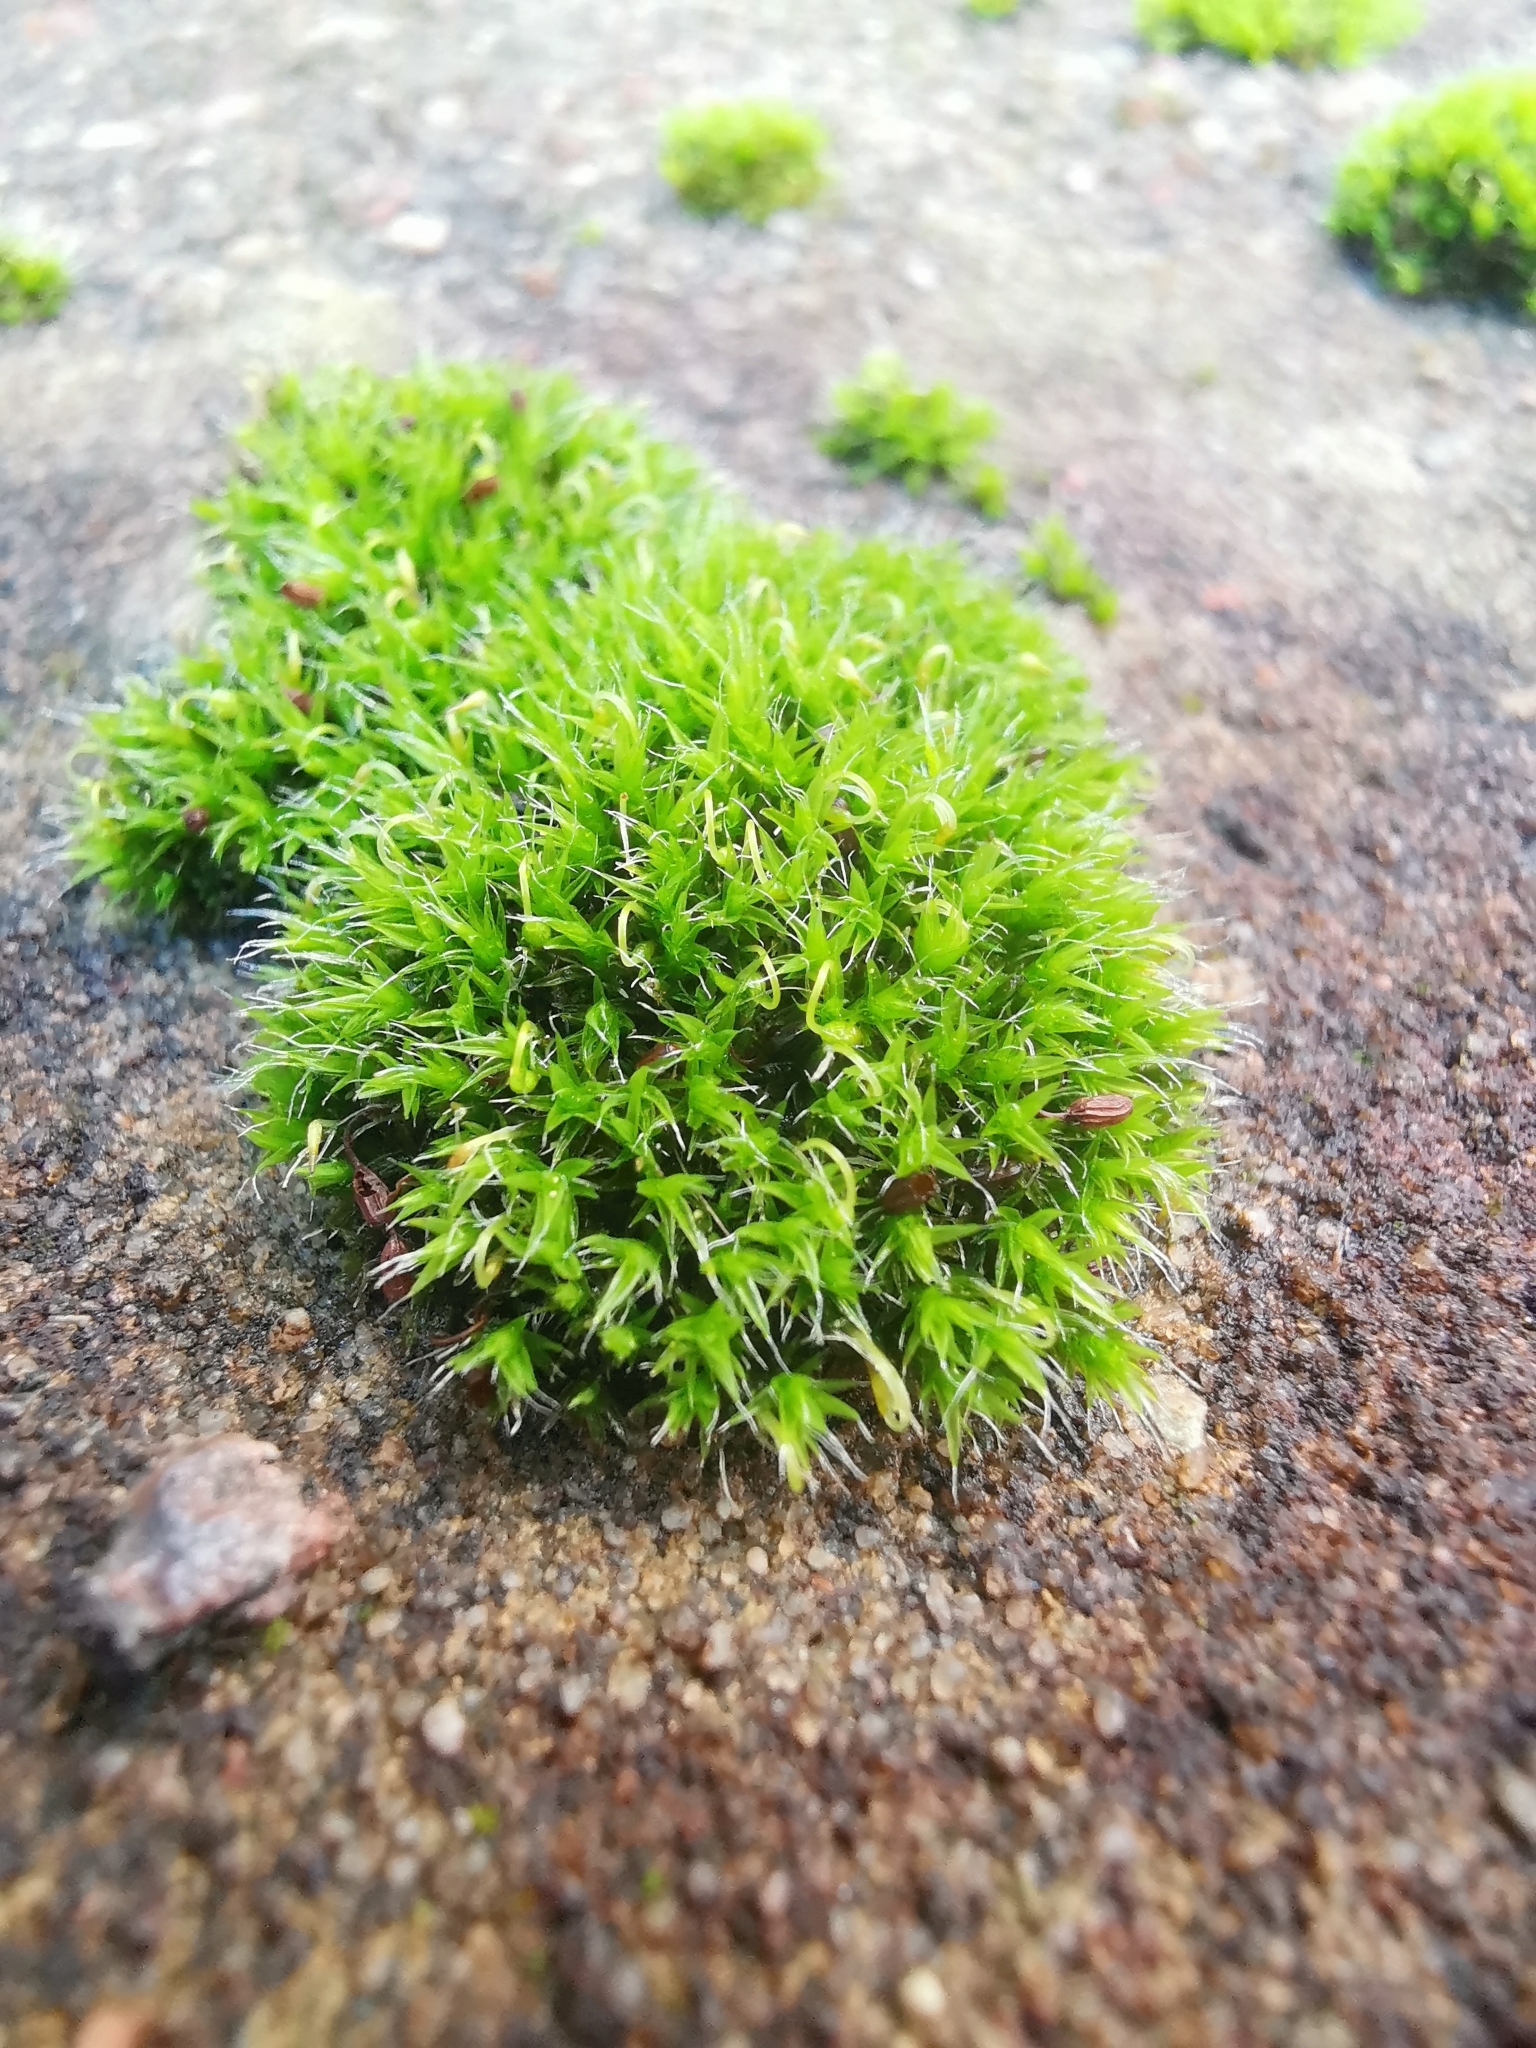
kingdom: Plantae
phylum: Bryophyta
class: Bryopsida
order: Grimmiales
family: Grimmiaceae
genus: Grimmia
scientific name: Grimmia pulvinata
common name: Grey-cushioned grimmia
